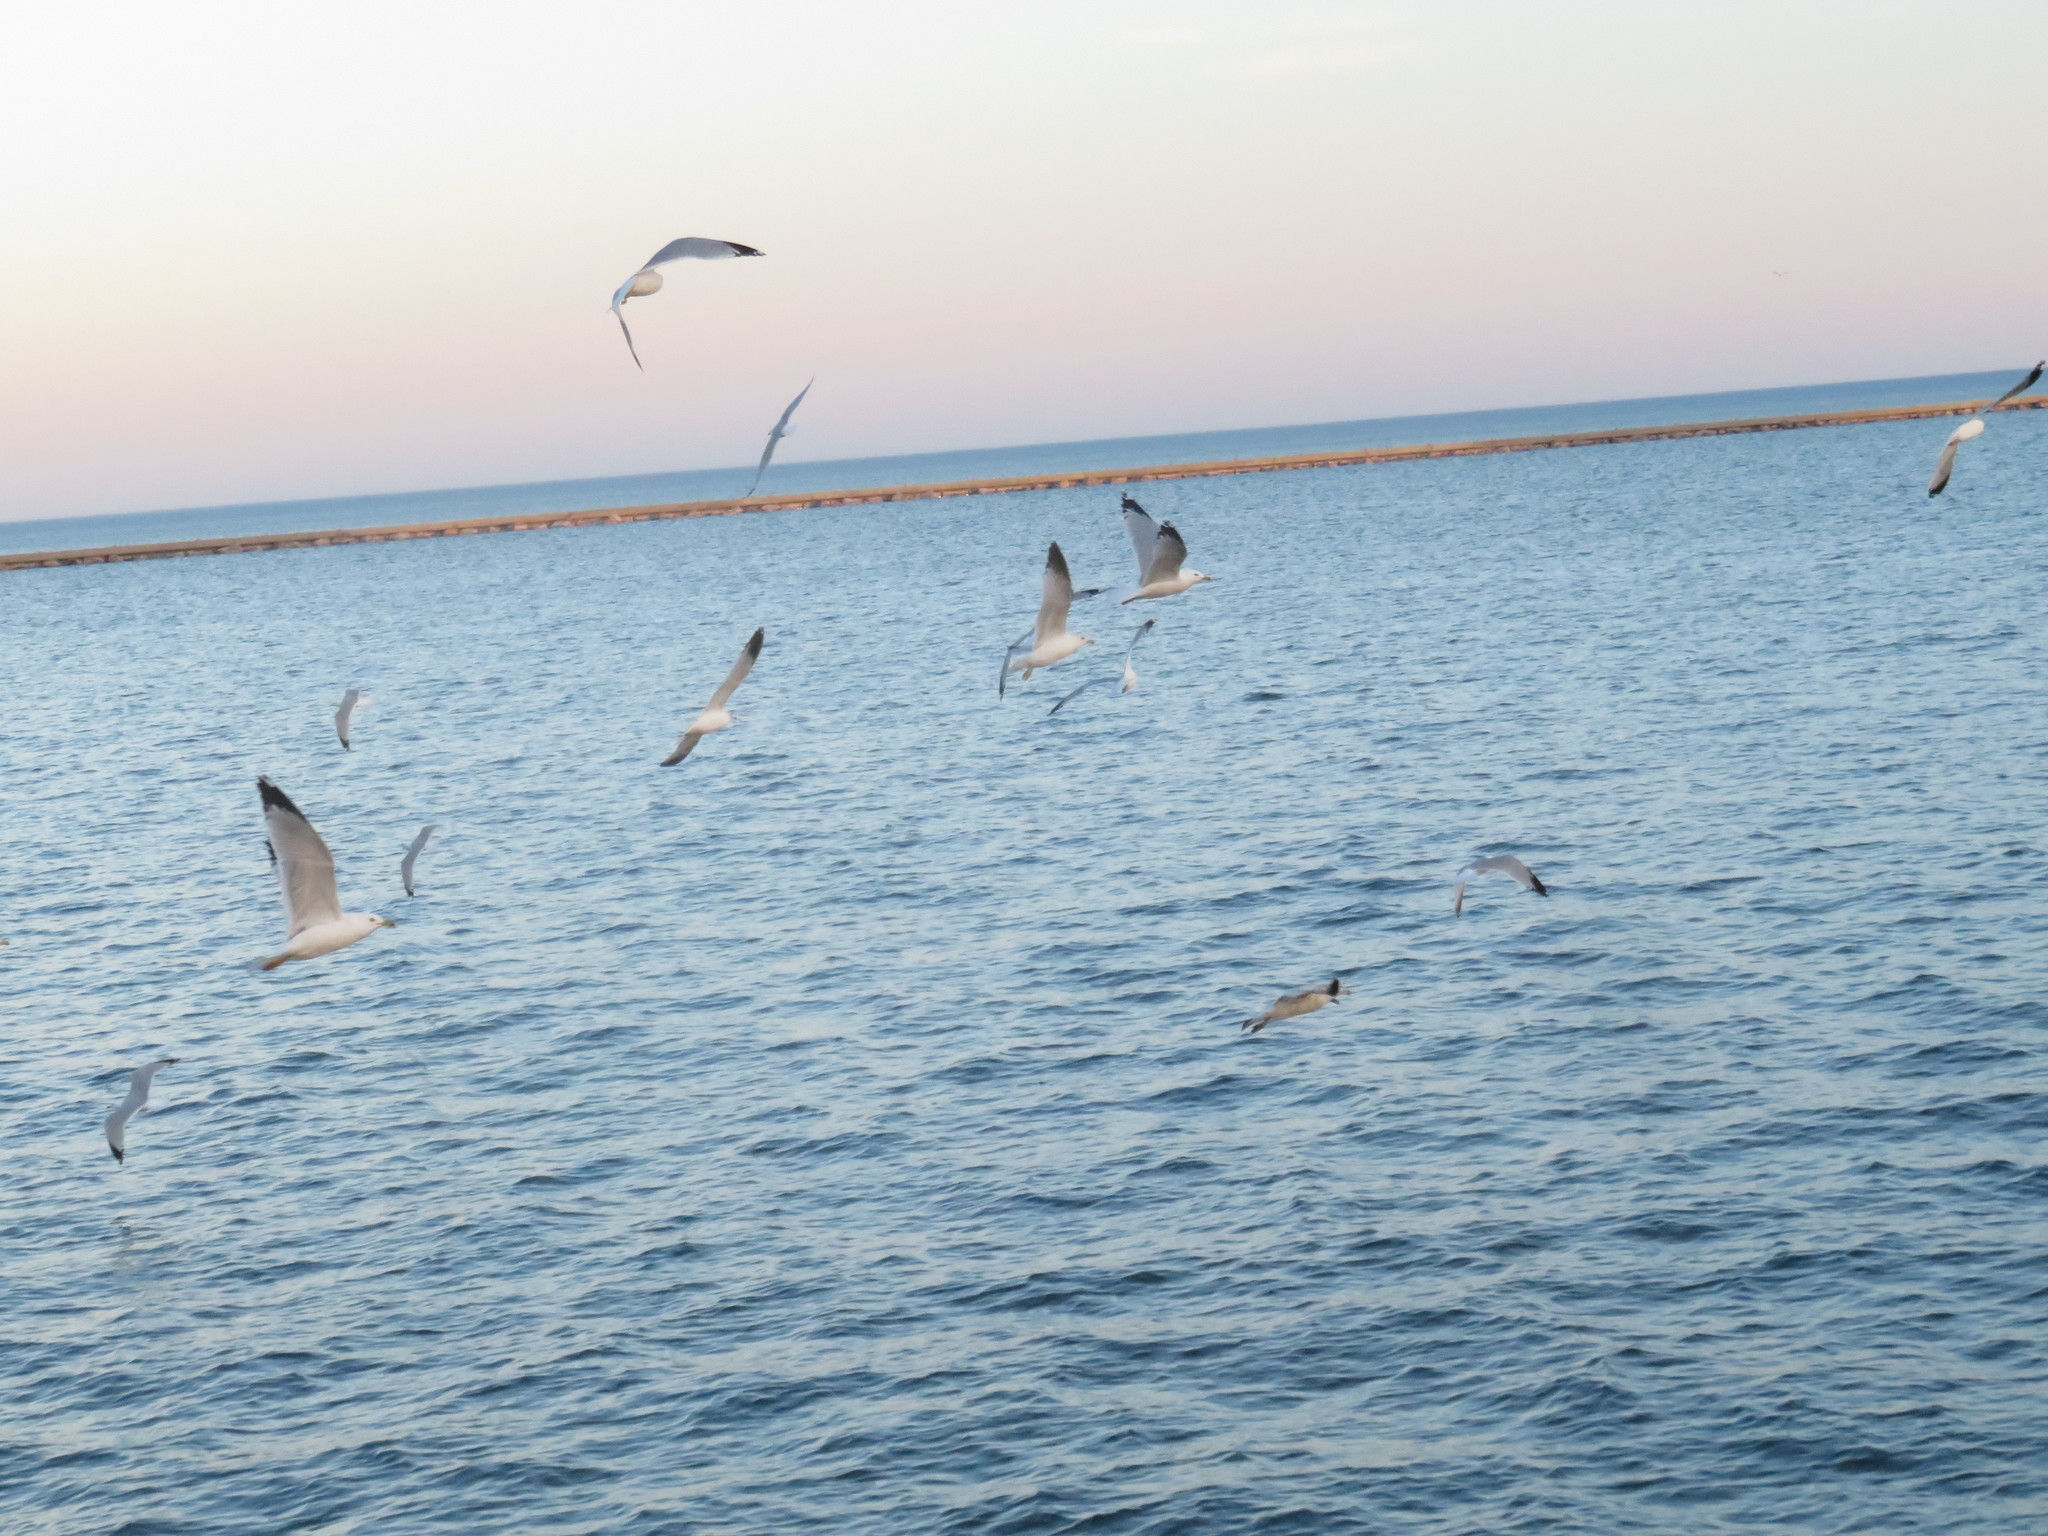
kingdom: Animalia
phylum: Chordata
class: Aves
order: Charadriiformes
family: Laridae
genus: Larus
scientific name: Larus delawarensis
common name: Ring-billed gull
